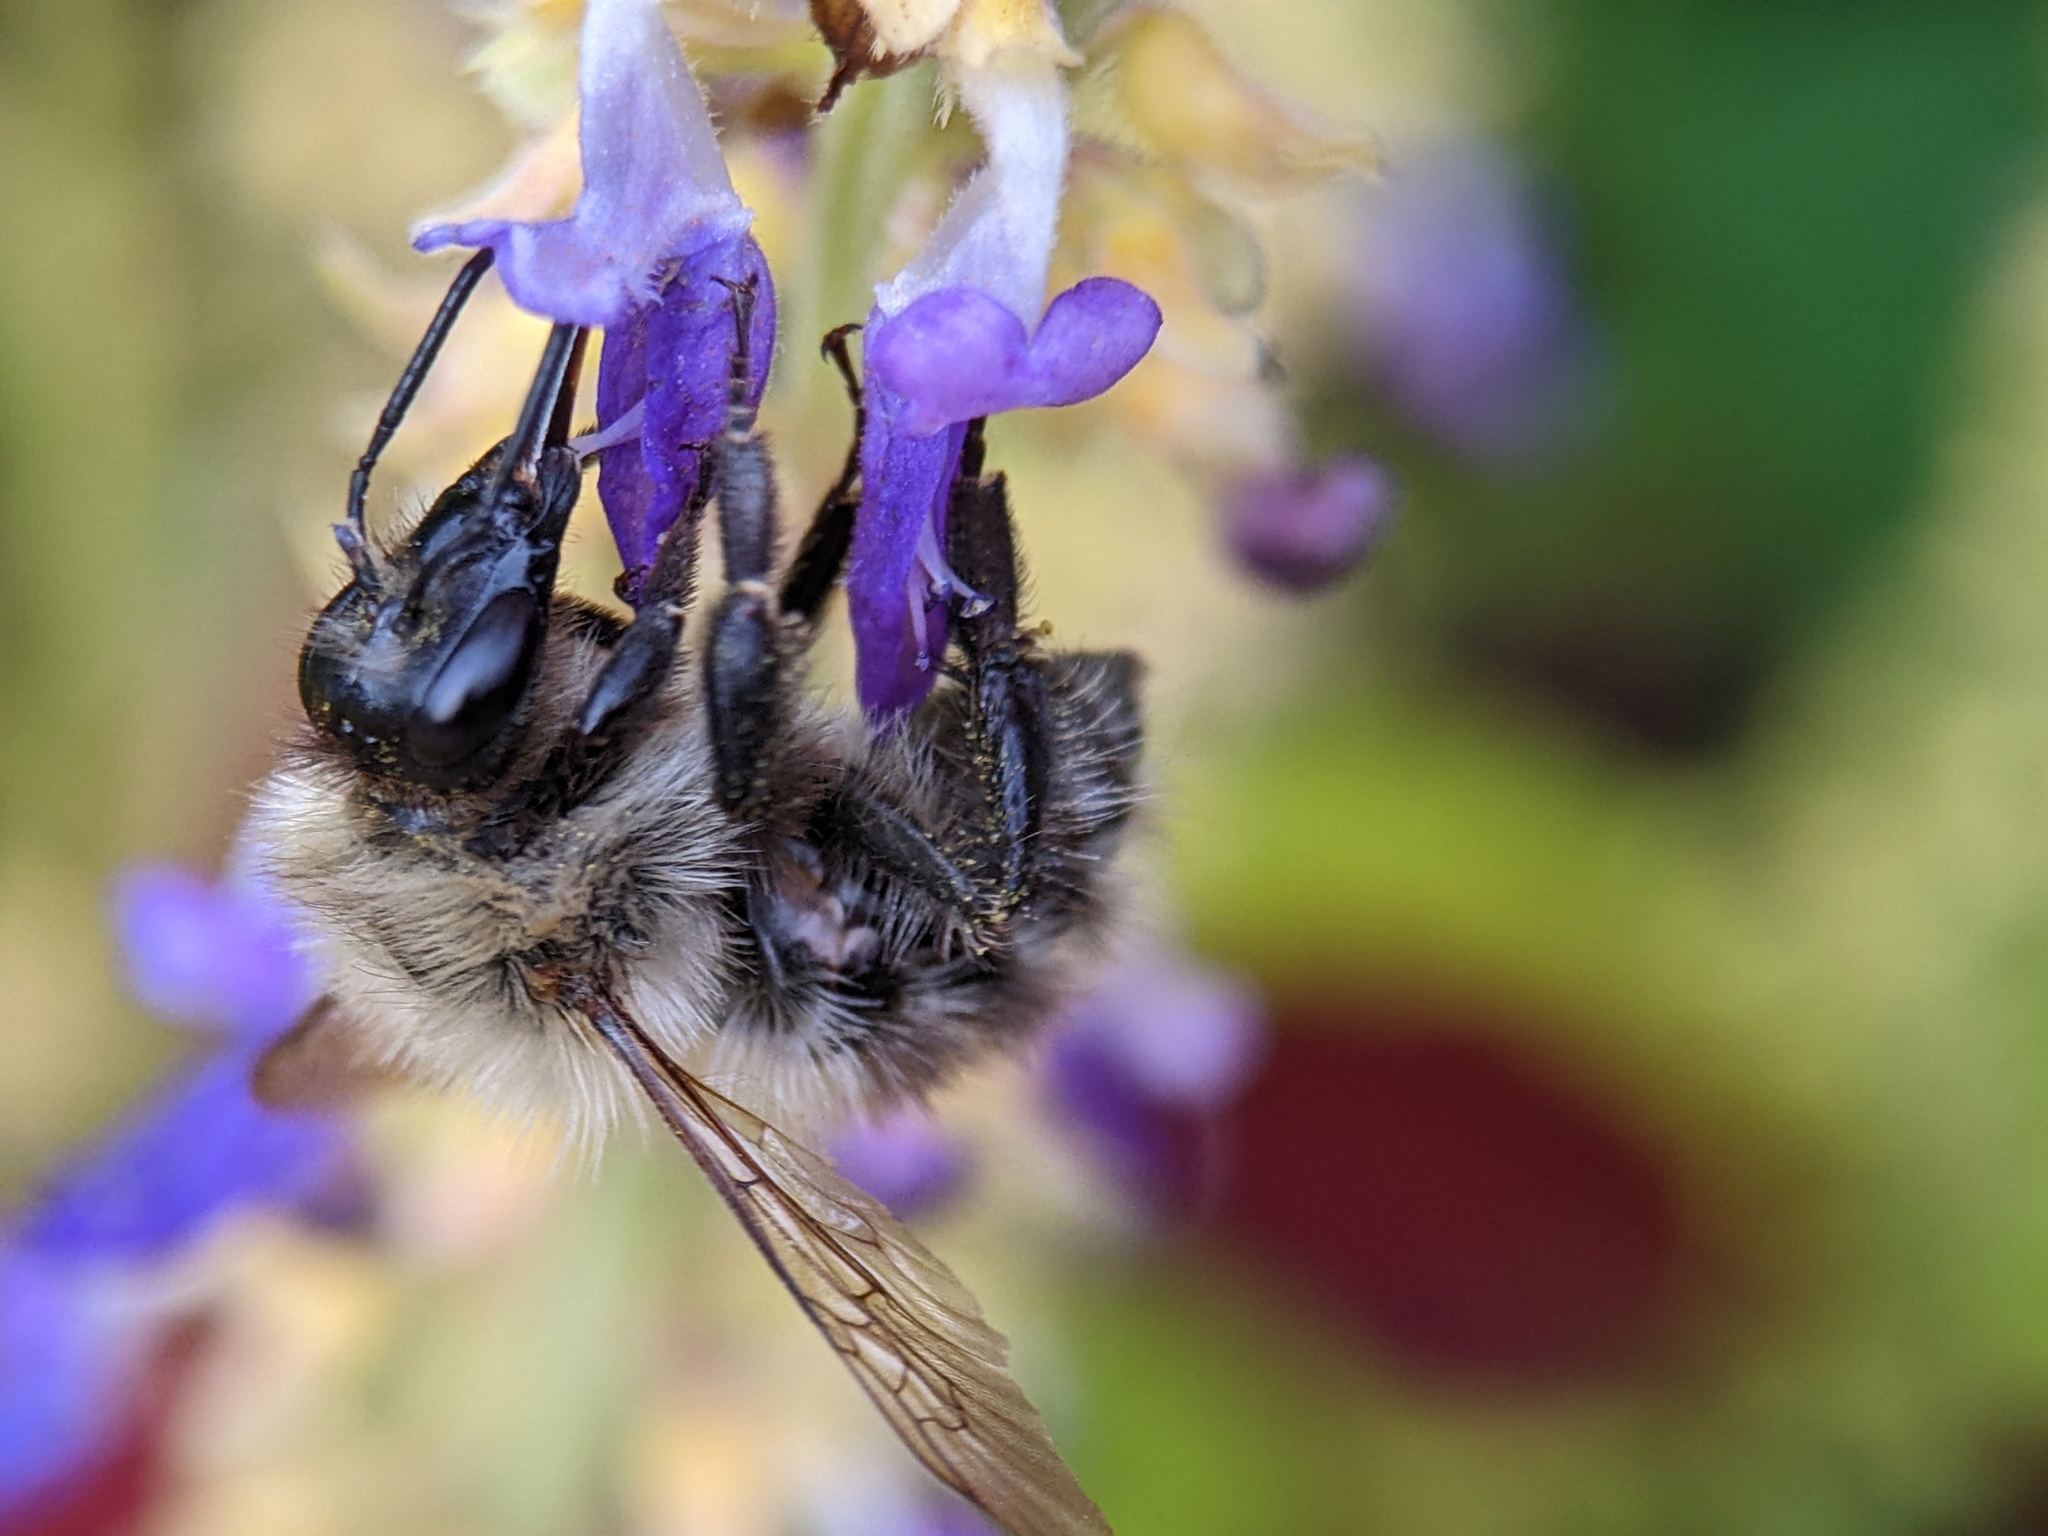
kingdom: Animalia
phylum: Arthropoda
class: Insecta
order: Hymenoptera
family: Apidae
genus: Bombus
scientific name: Bombus pascuorum
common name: Common carder bee
